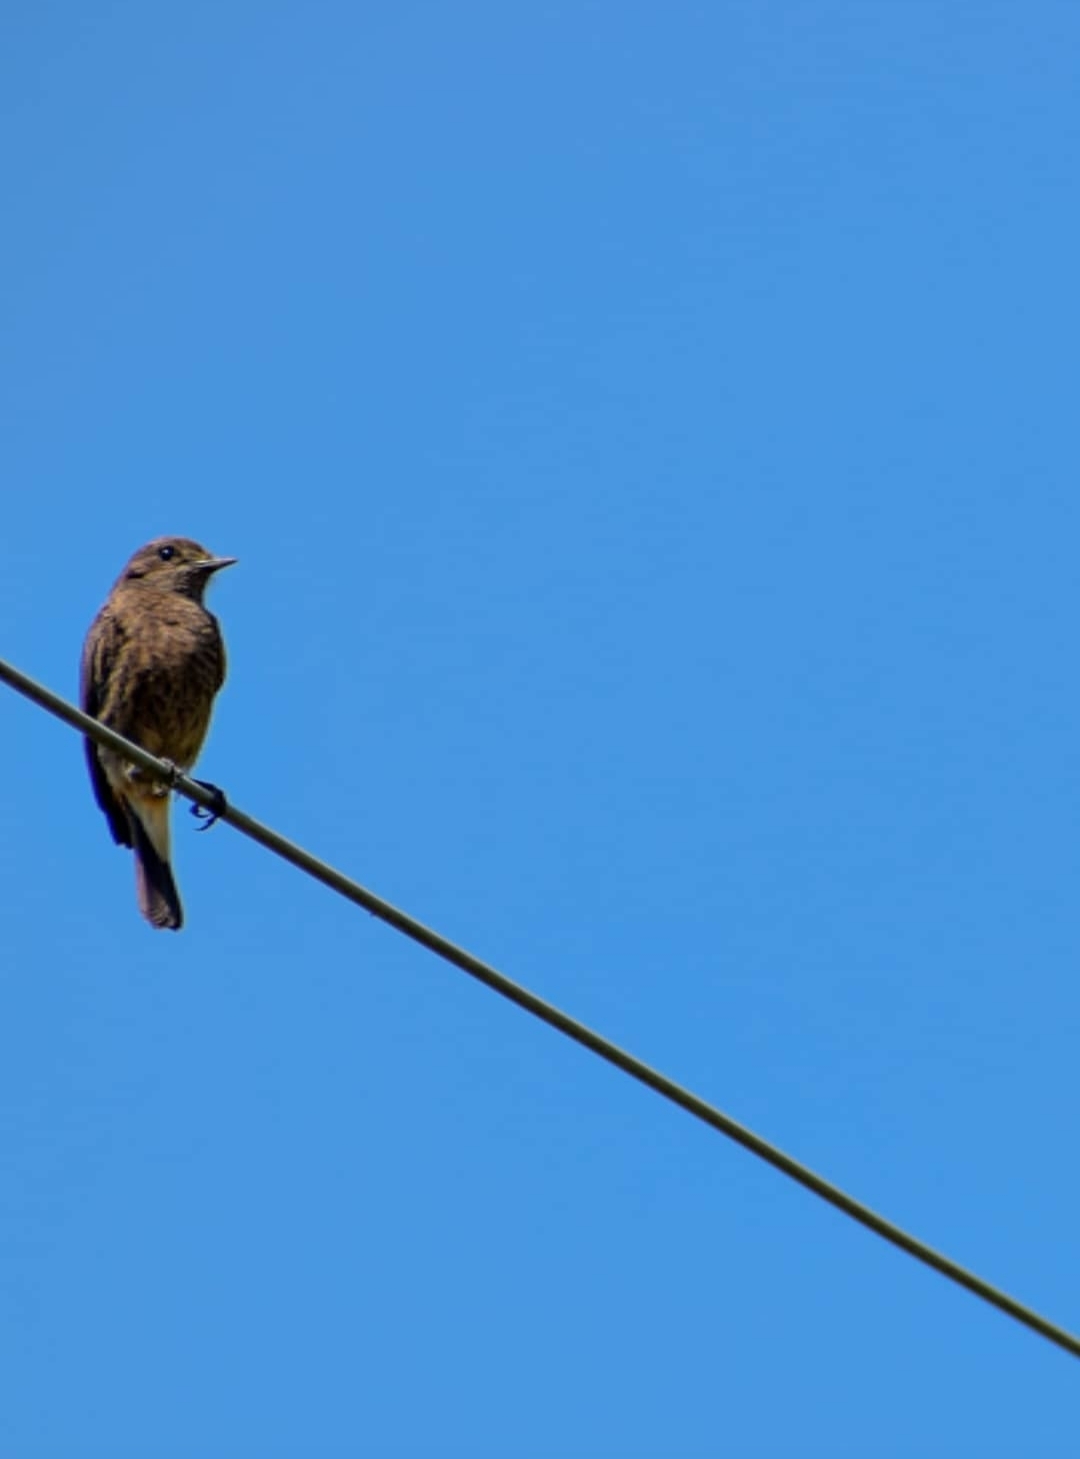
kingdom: Animalia
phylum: Chordata
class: Aves
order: Passeriformes
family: Muscicapidae
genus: Saxicola
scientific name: Saxicola caprata
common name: Pied bush chat
